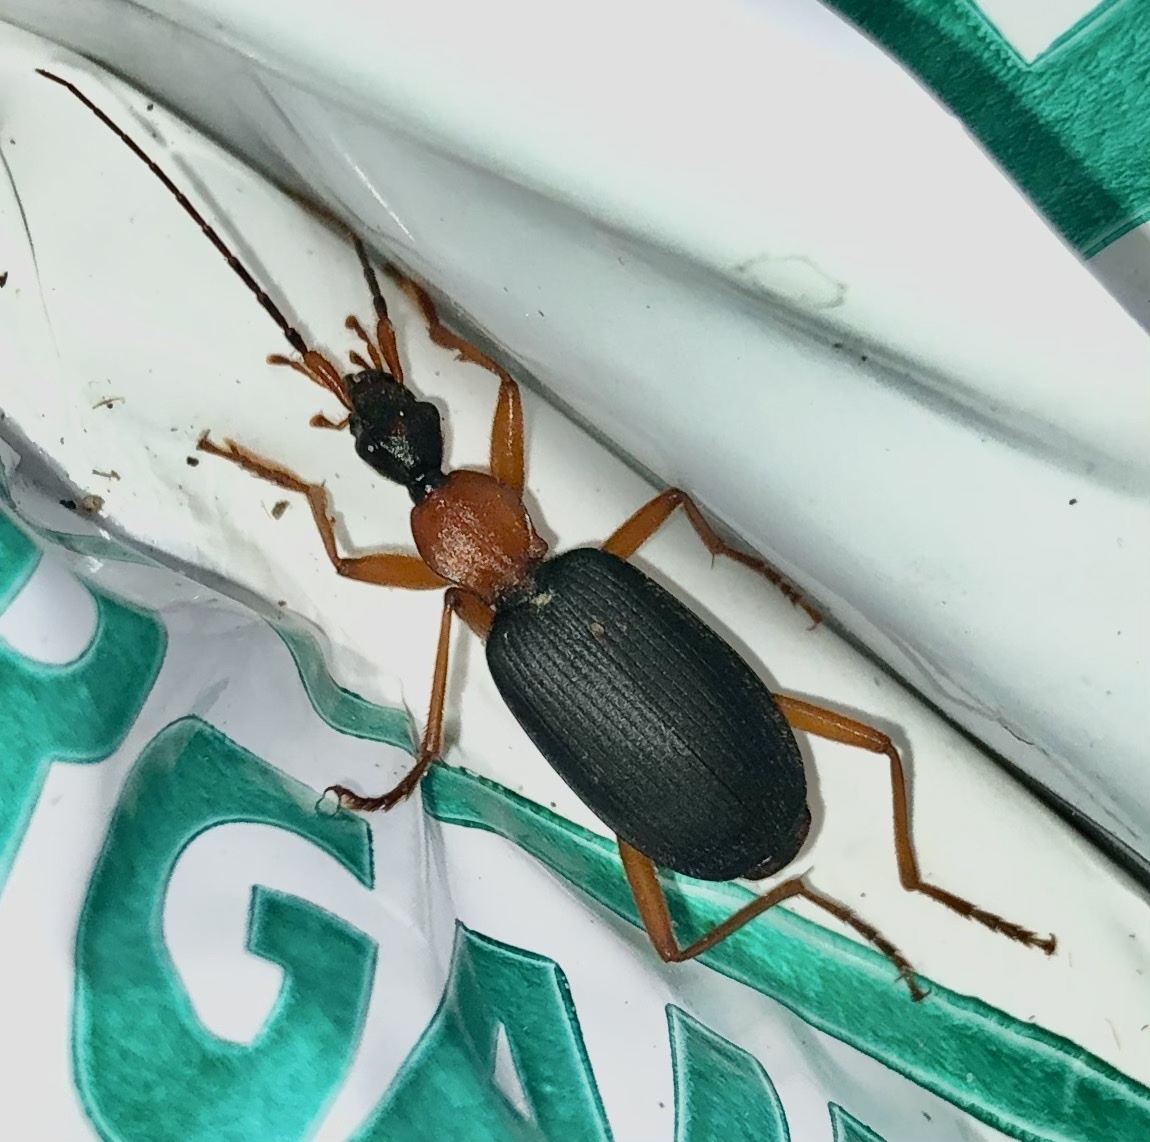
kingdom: Animalia
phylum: Arthropoda
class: Insecta
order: Coleoptera
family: Carabidae
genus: Galerita
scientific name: Galerita bicolor
